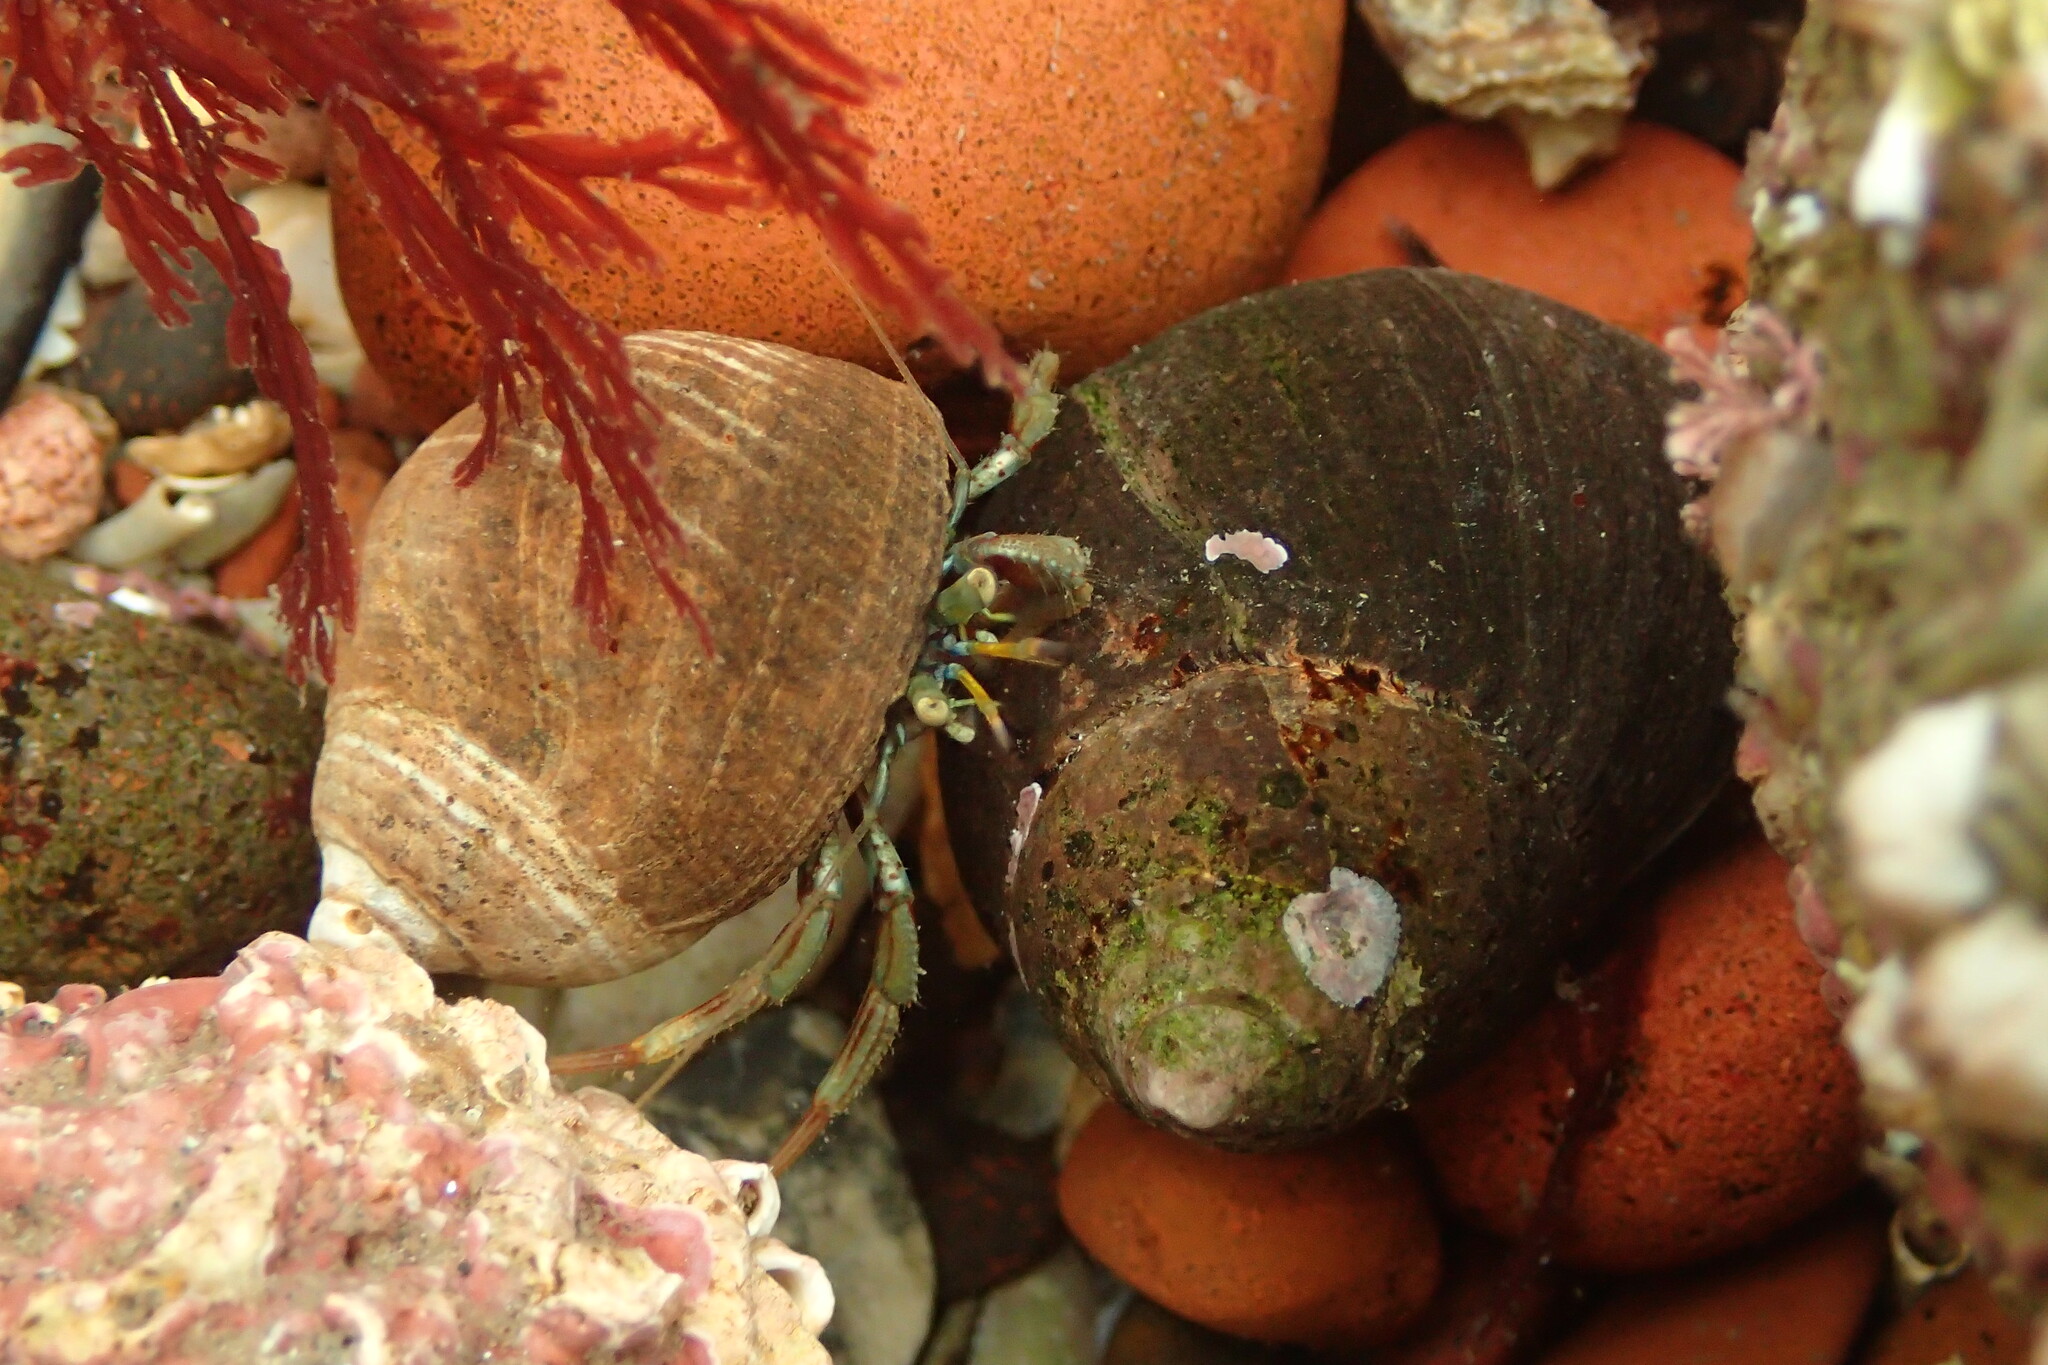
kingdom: Animalia
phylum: Arthropoda
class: Malacostraca
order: Decapoda
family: Paguridae
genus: Pagurus
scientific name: Pagurus bernhardus
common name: Hermit crab
